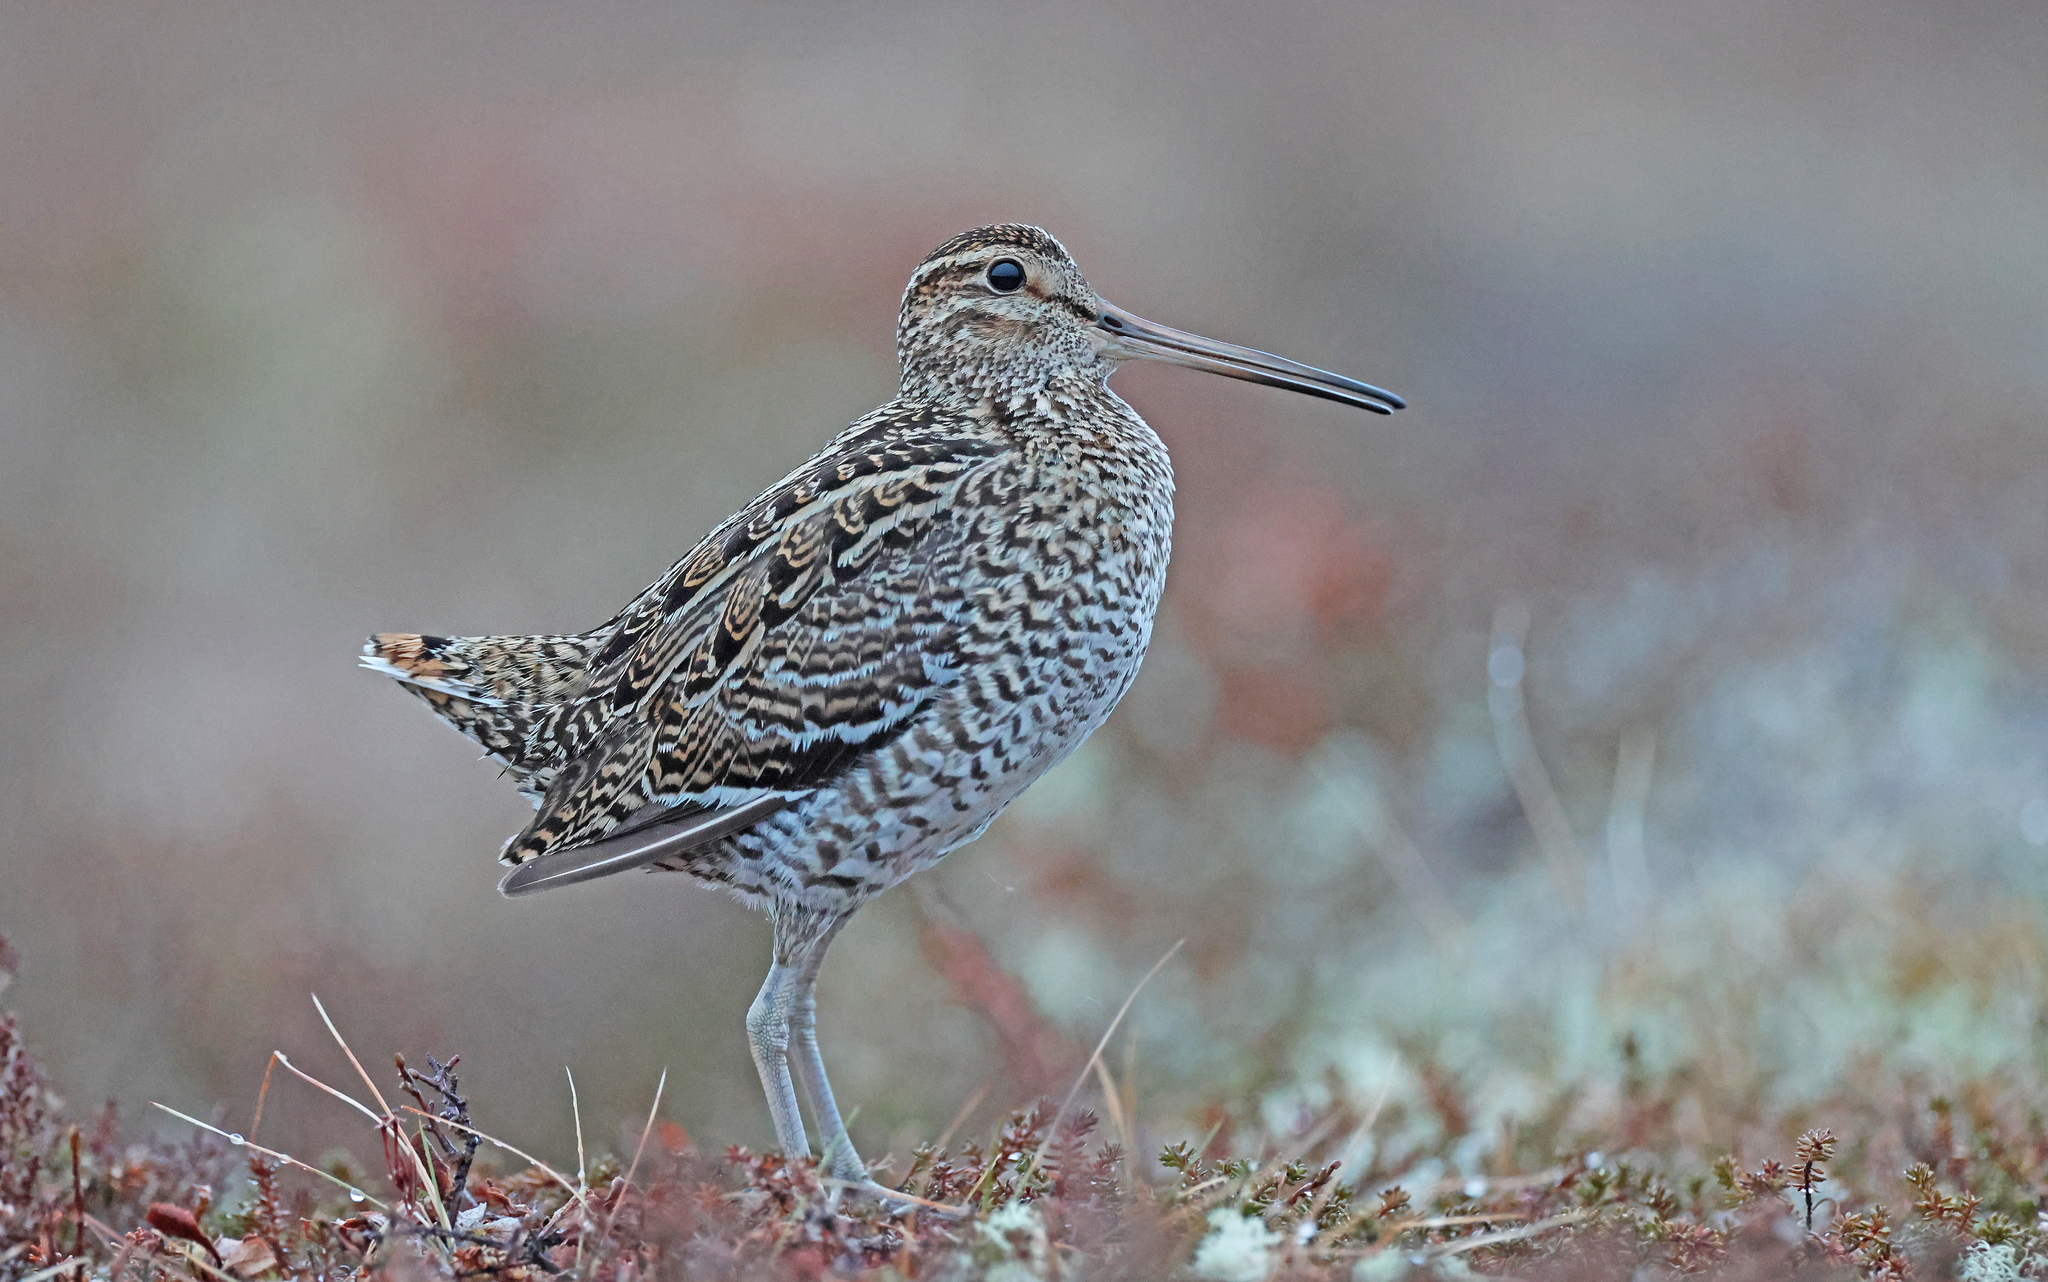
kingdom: Animalia
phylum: Chordata
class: Aves
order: Charadriiformes
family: Scolopacidae
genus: Gallinago
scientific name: Gallinago media
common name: Great snipe
